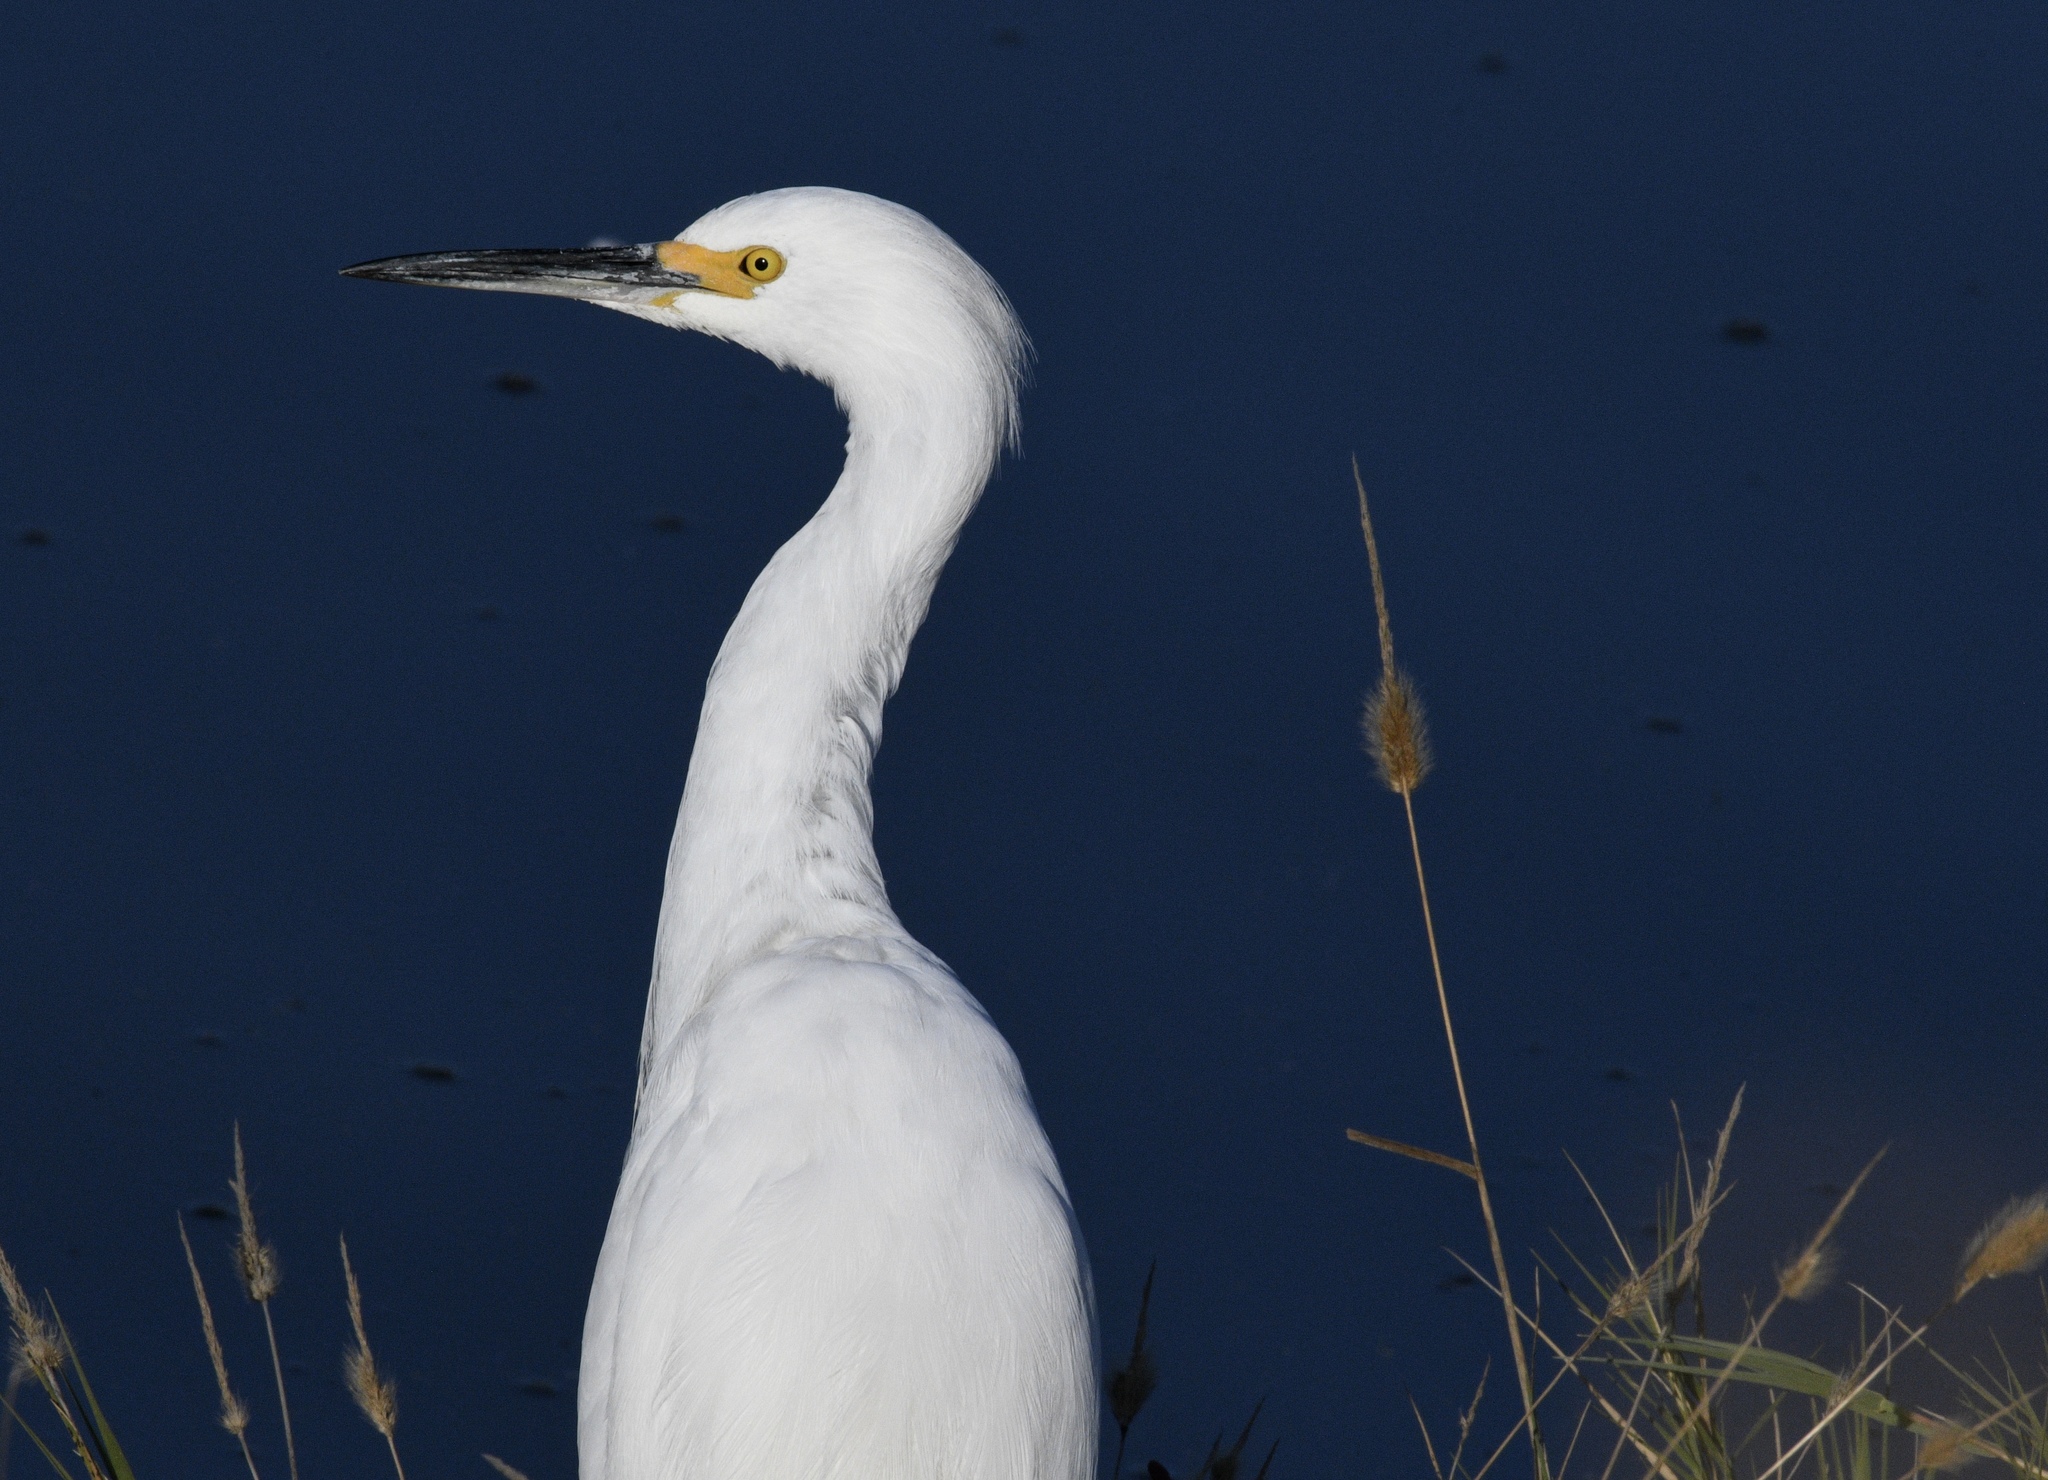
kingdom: Animalia
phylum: Chordata
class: Aves
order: Pelecaniformes
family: Ardeidae
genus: Egretta
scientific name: Egretta thula
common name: Snowy egret
